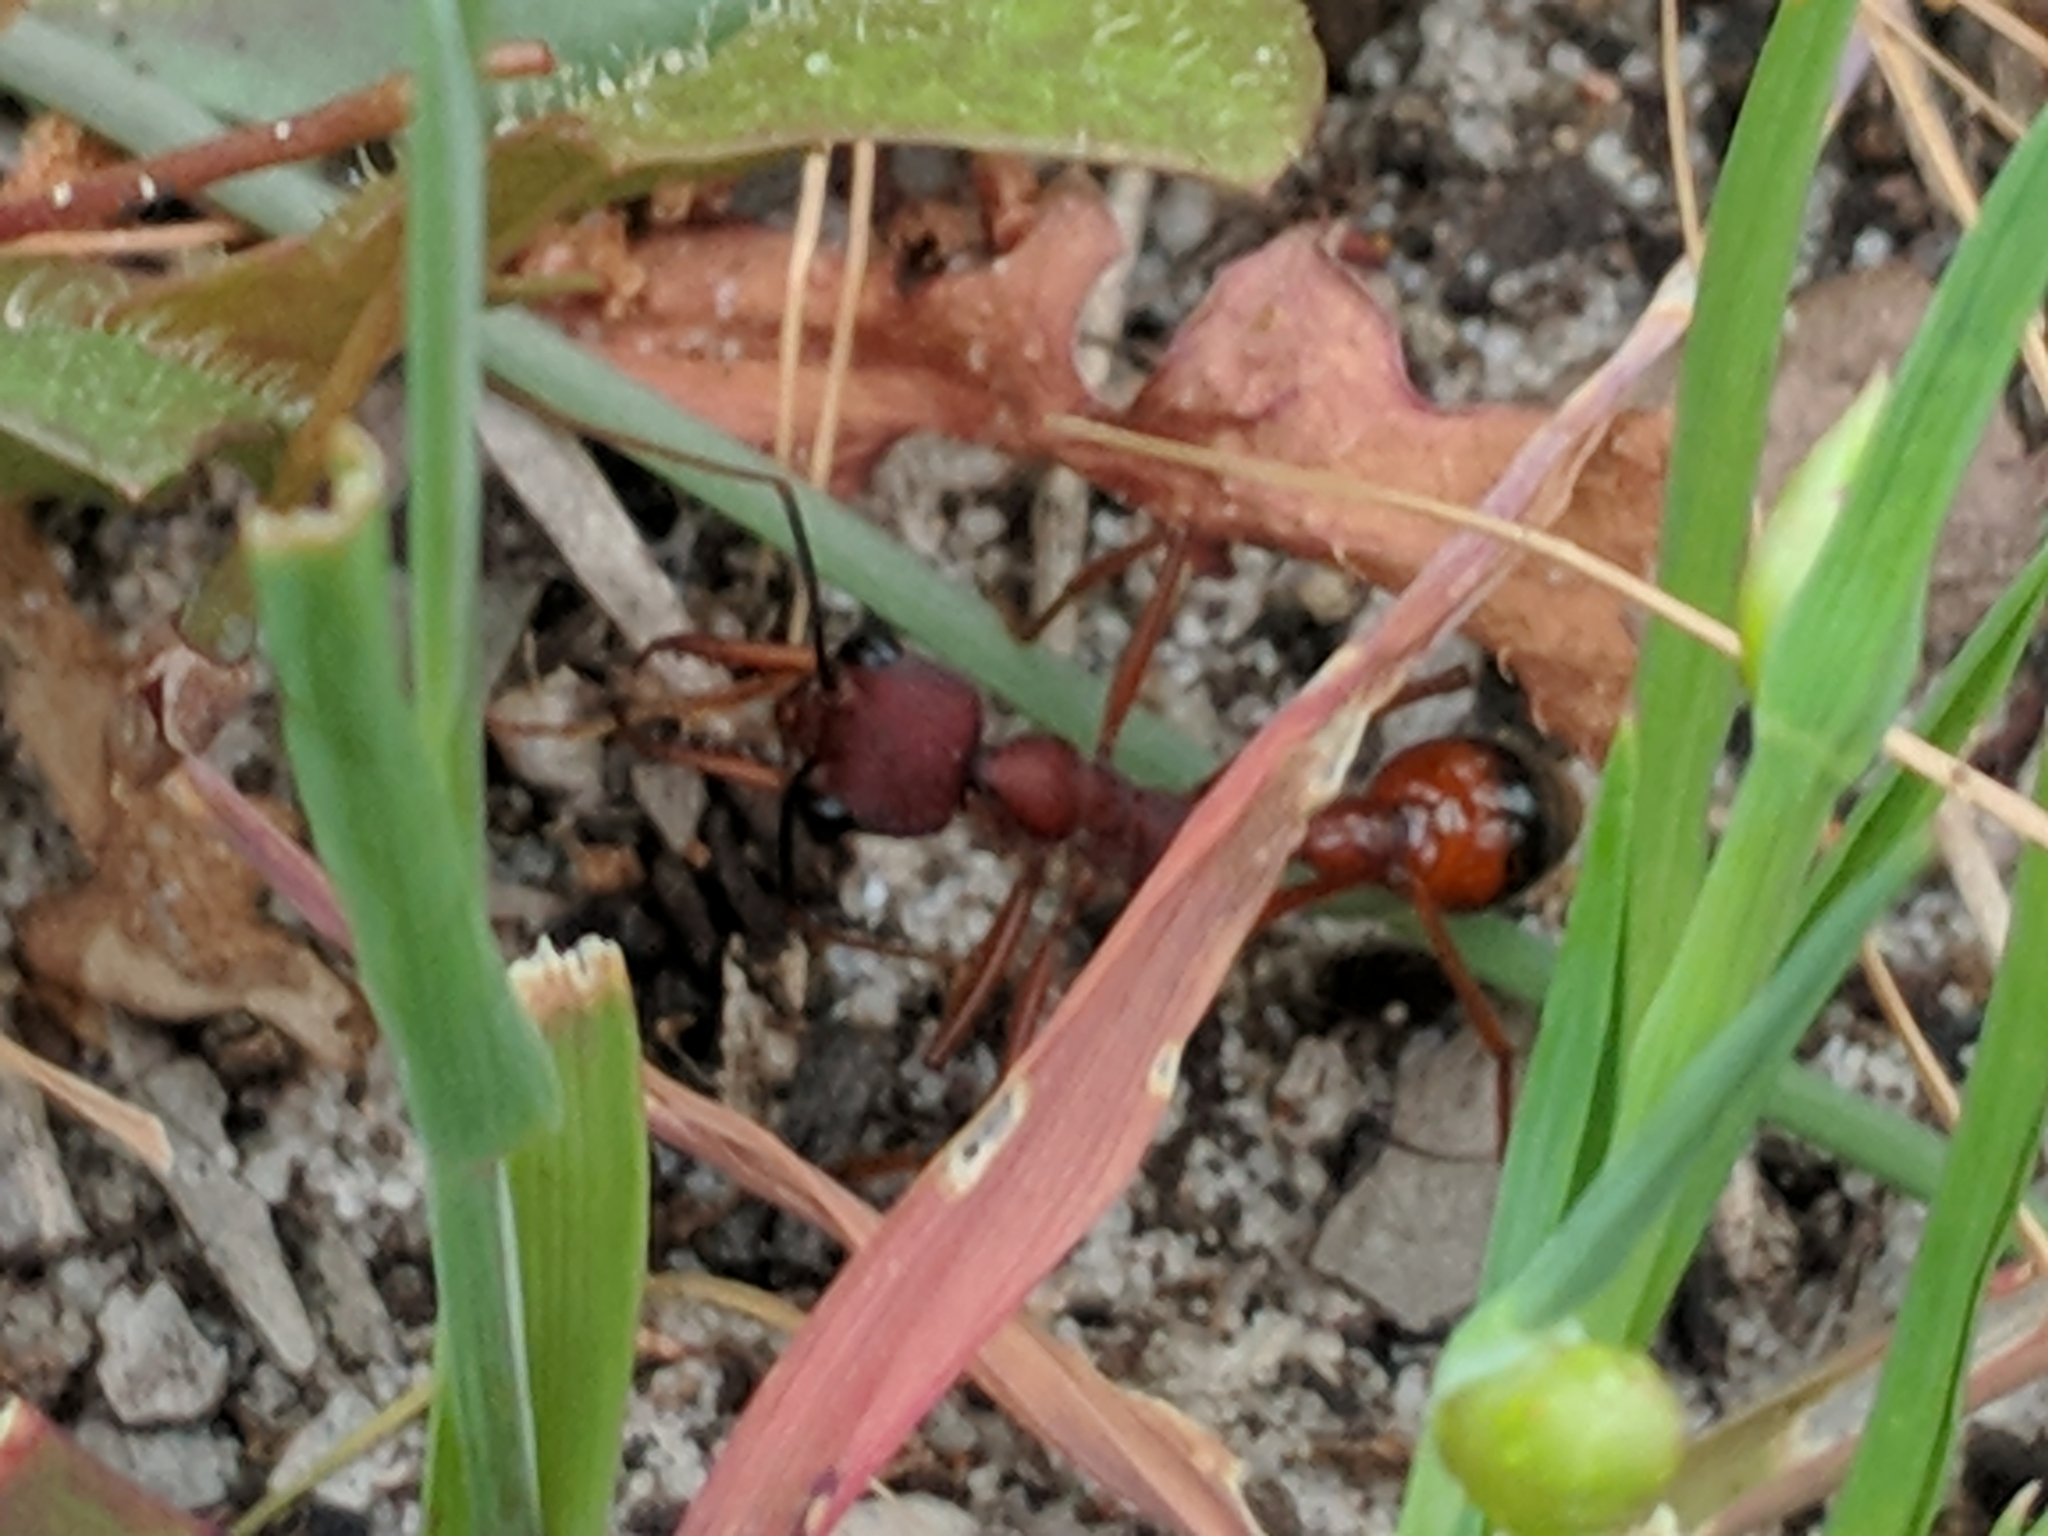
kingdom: Animalia
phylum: Arthropoda
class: Insecta
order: Hymenoptera
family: Formicidae
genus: Myrmecia
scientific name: Myrmecia nigriscapa
